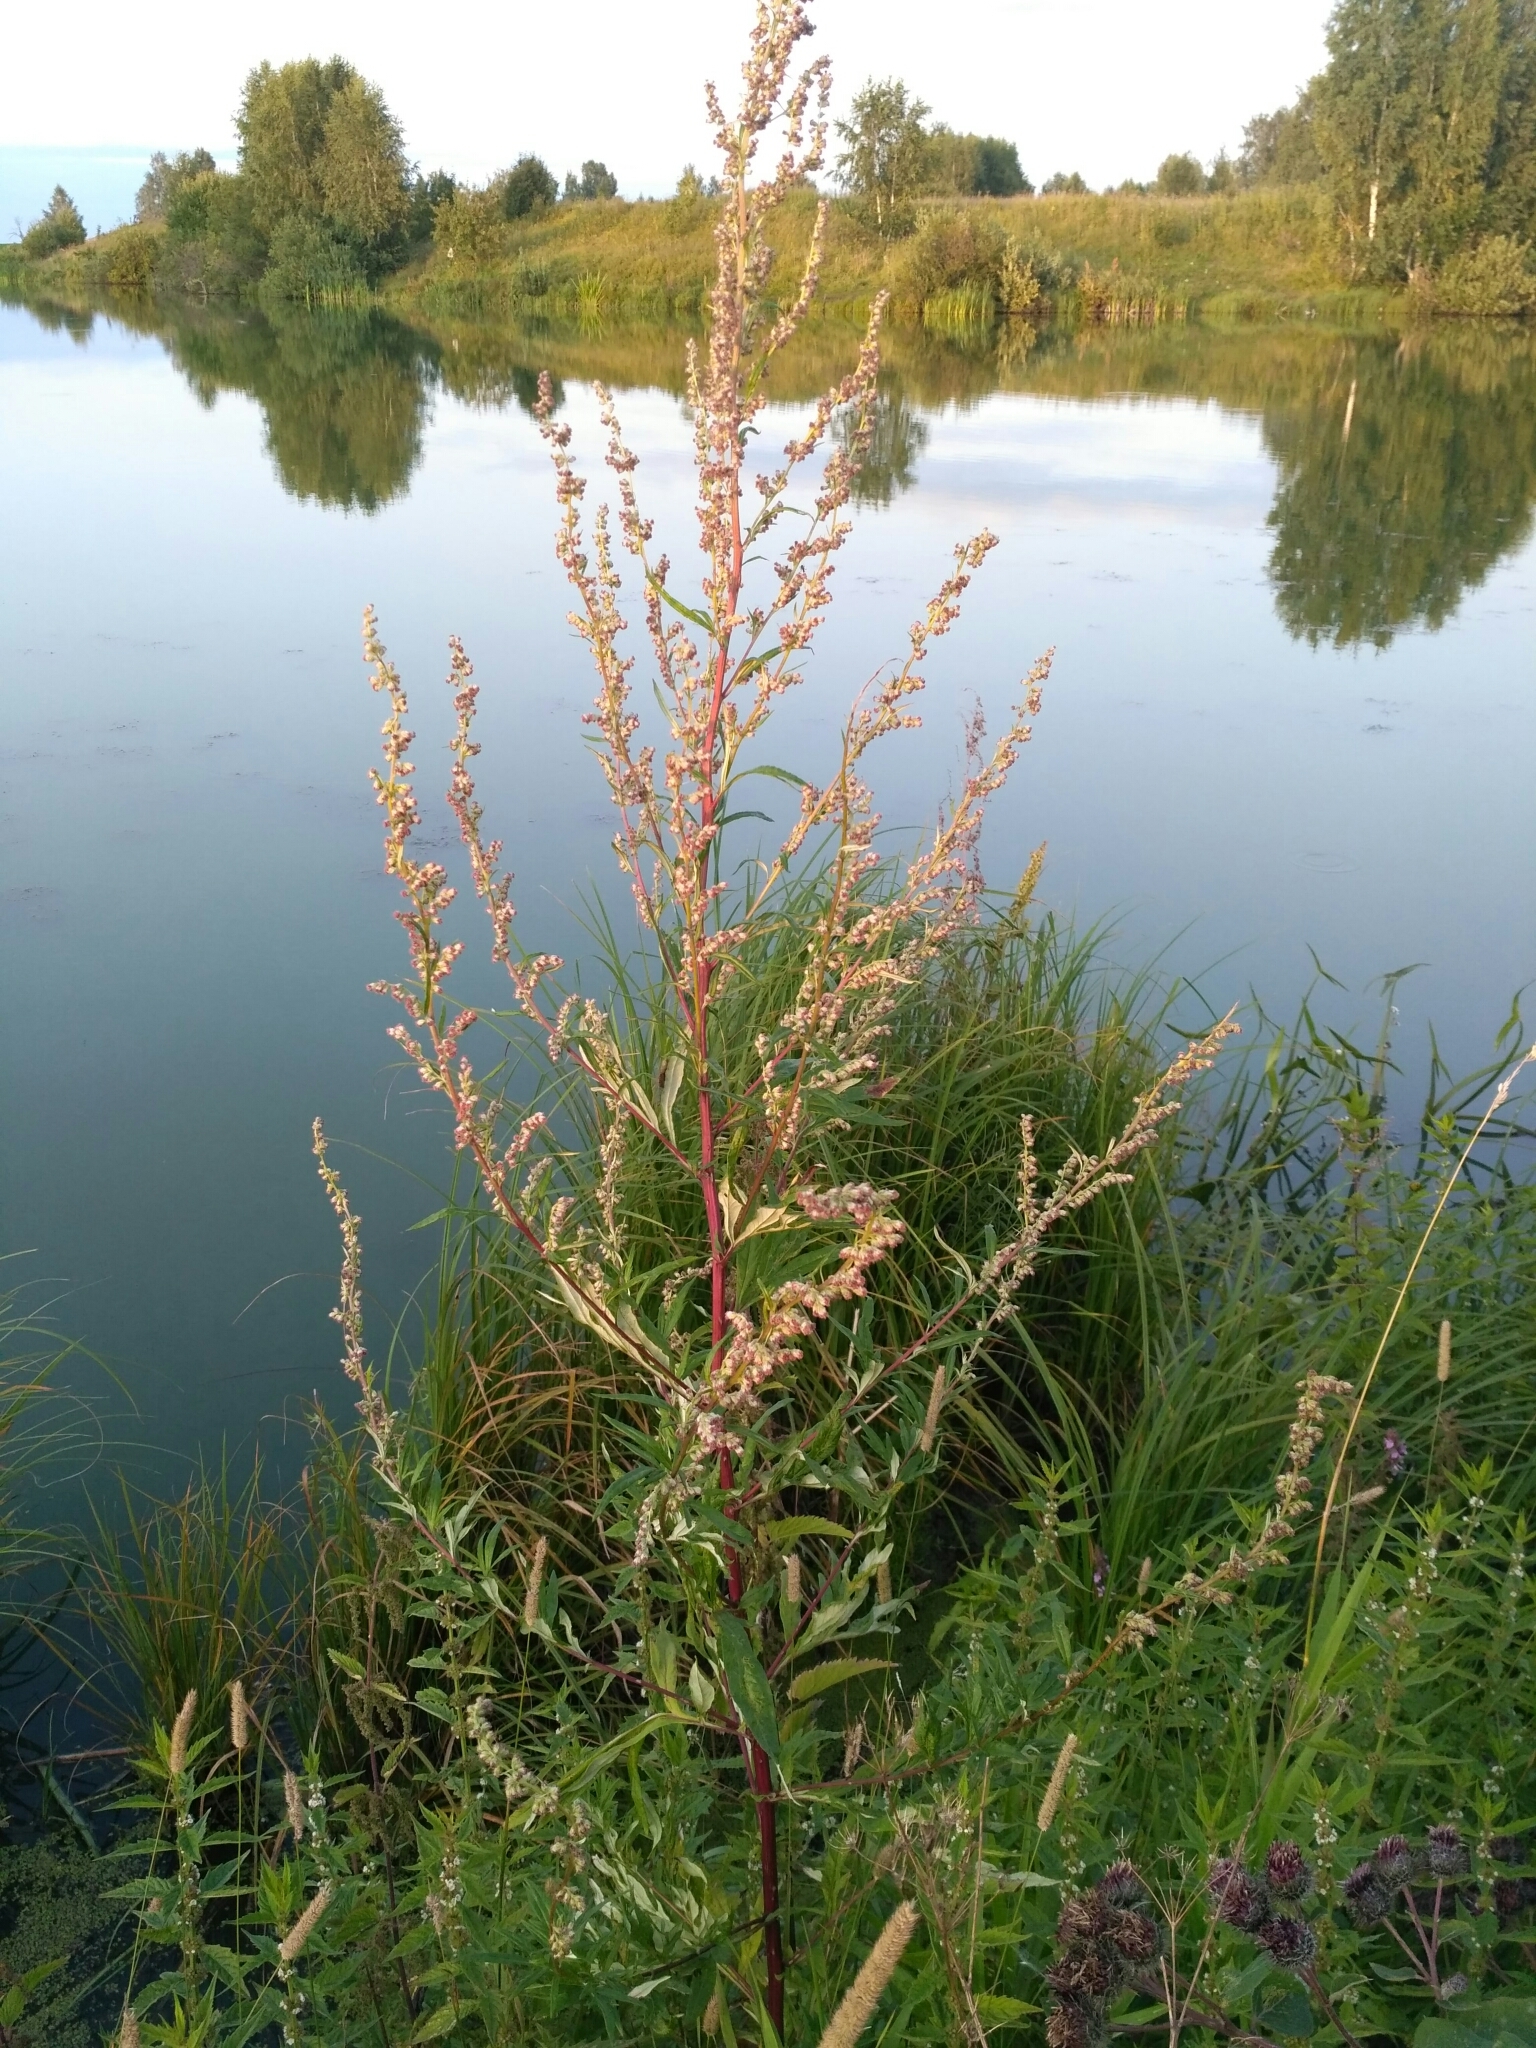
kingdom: Plantae
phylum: Tracheophyta
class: Magnoliopsida
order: Asterales
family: Asteraceae
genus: Artemisia
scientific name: Artemisia vulgaris
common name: Mugwort
